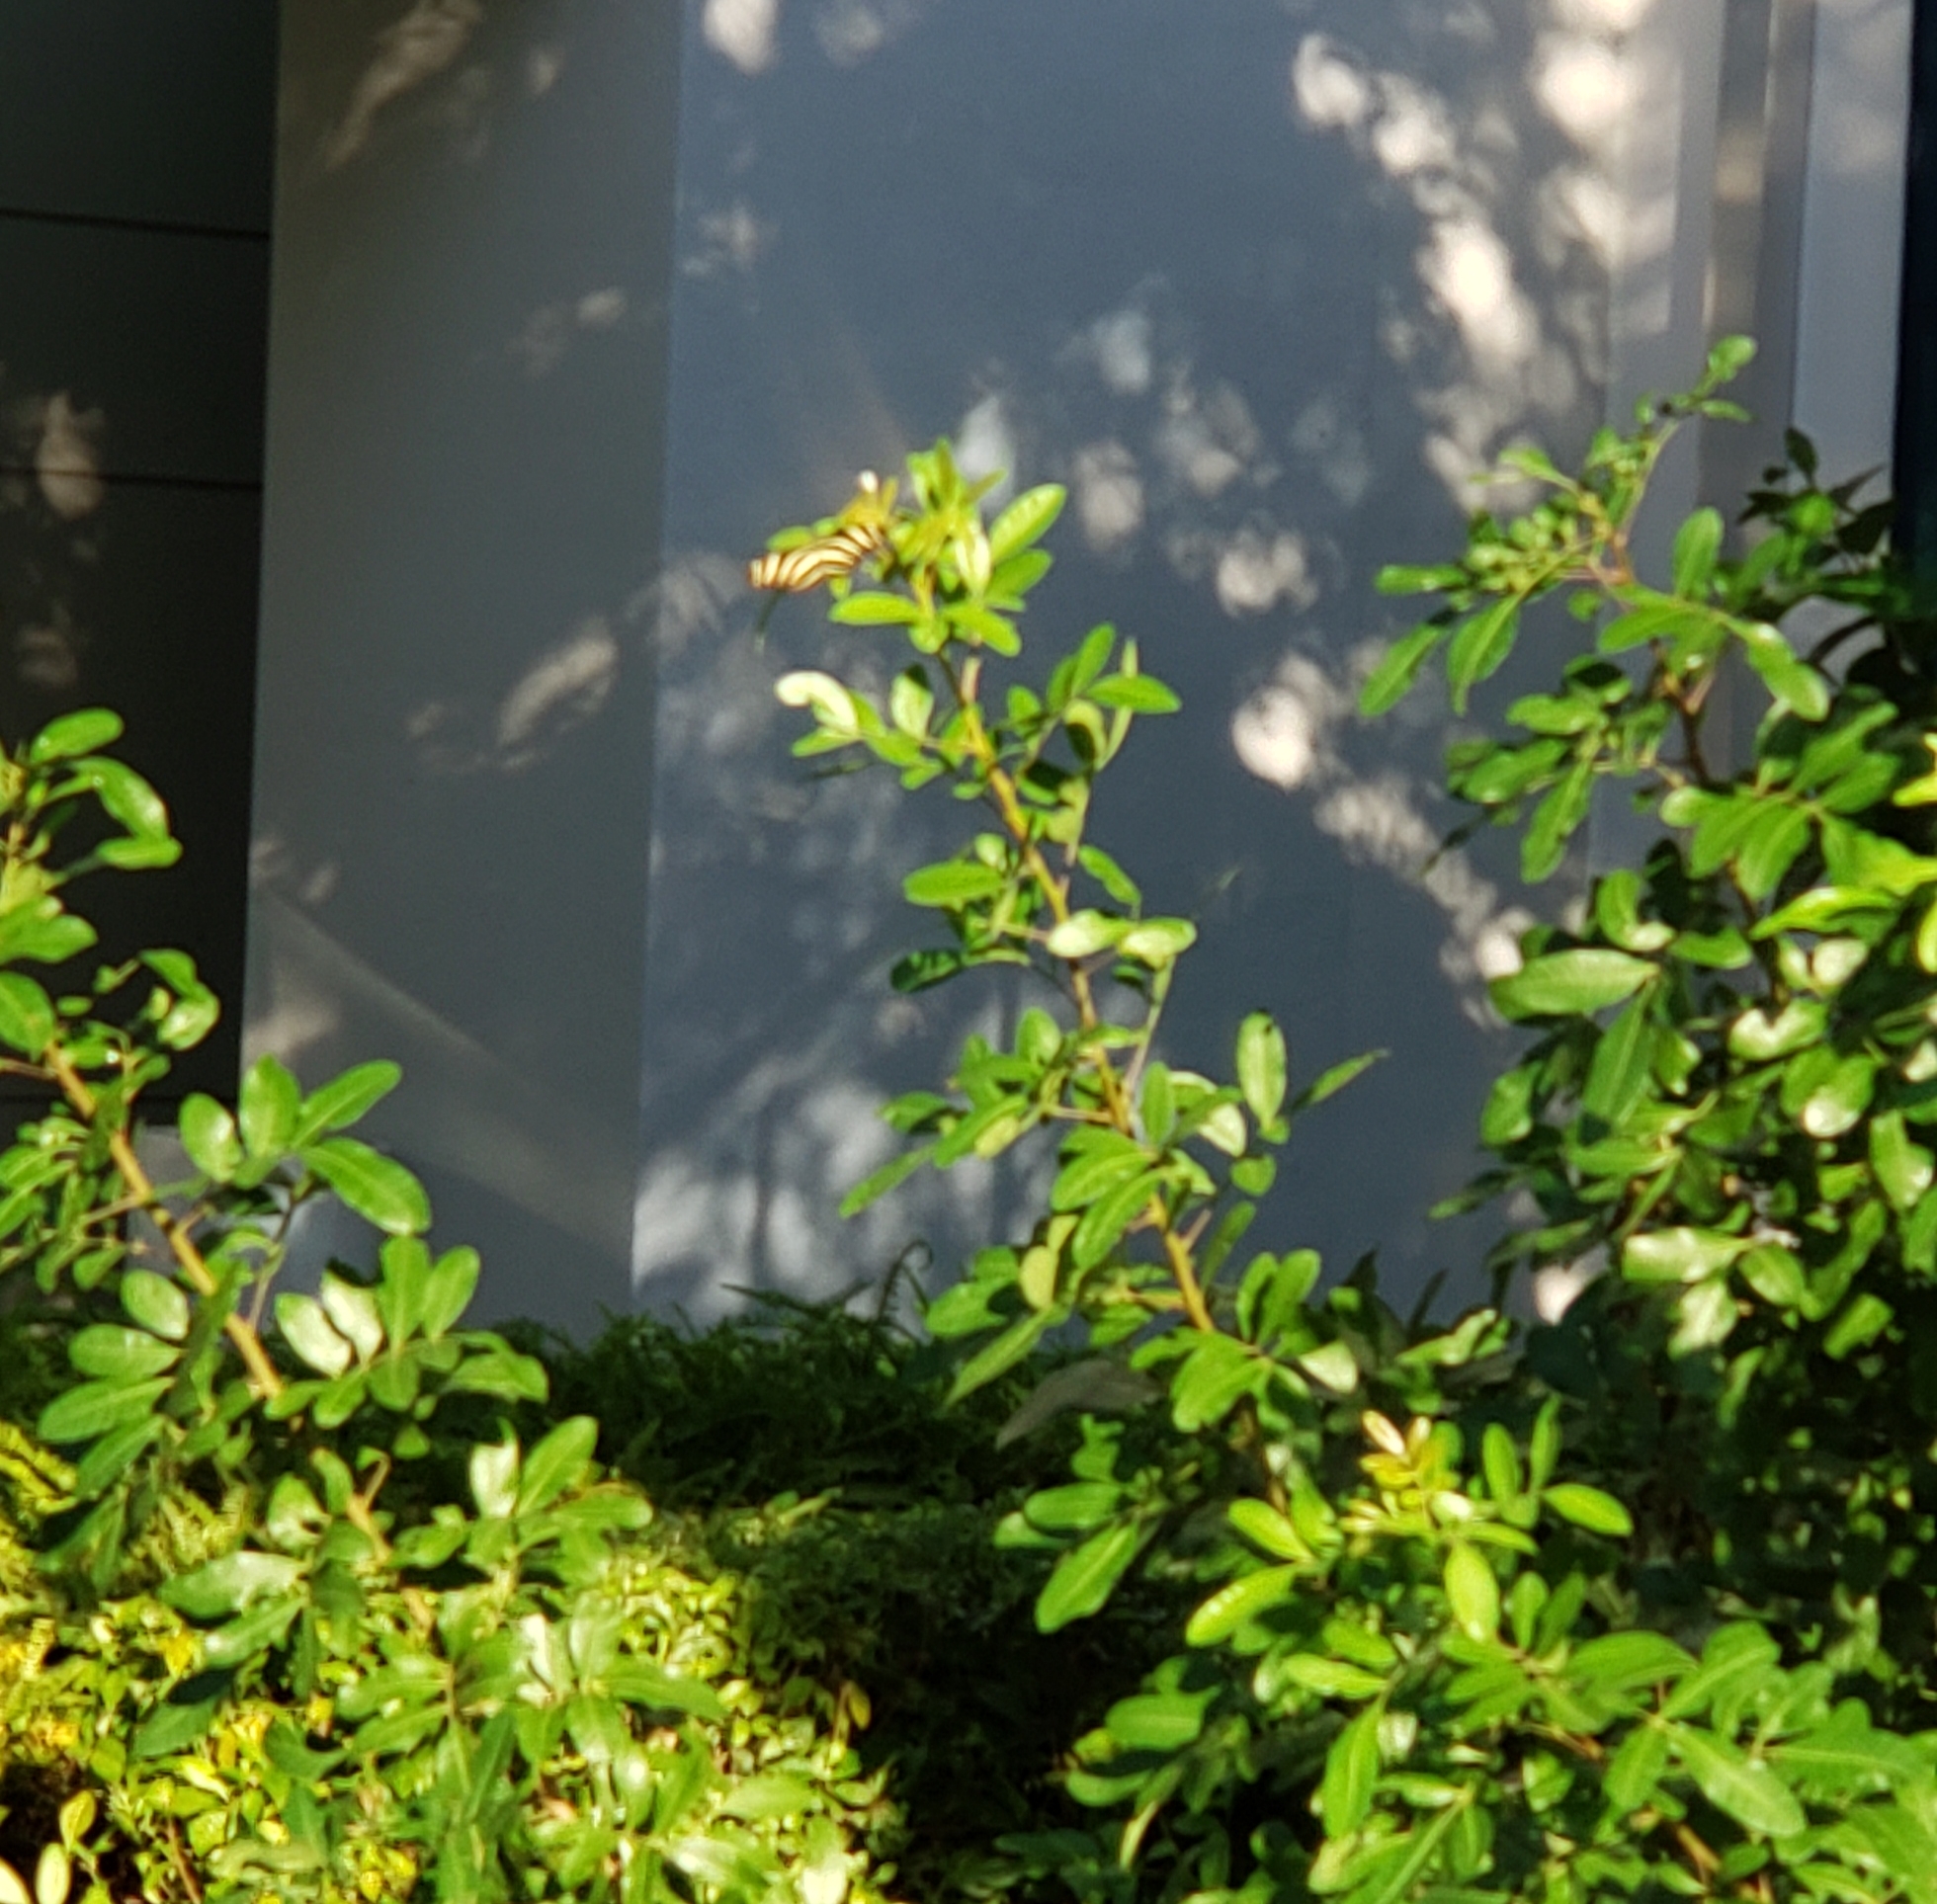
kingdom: Animalia
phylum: Arthropoda
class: Insecta
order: Lepidoptera
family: Nymphalidae
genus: Heliconius
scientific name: Heliconius charithonia
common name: Zebra long wing
